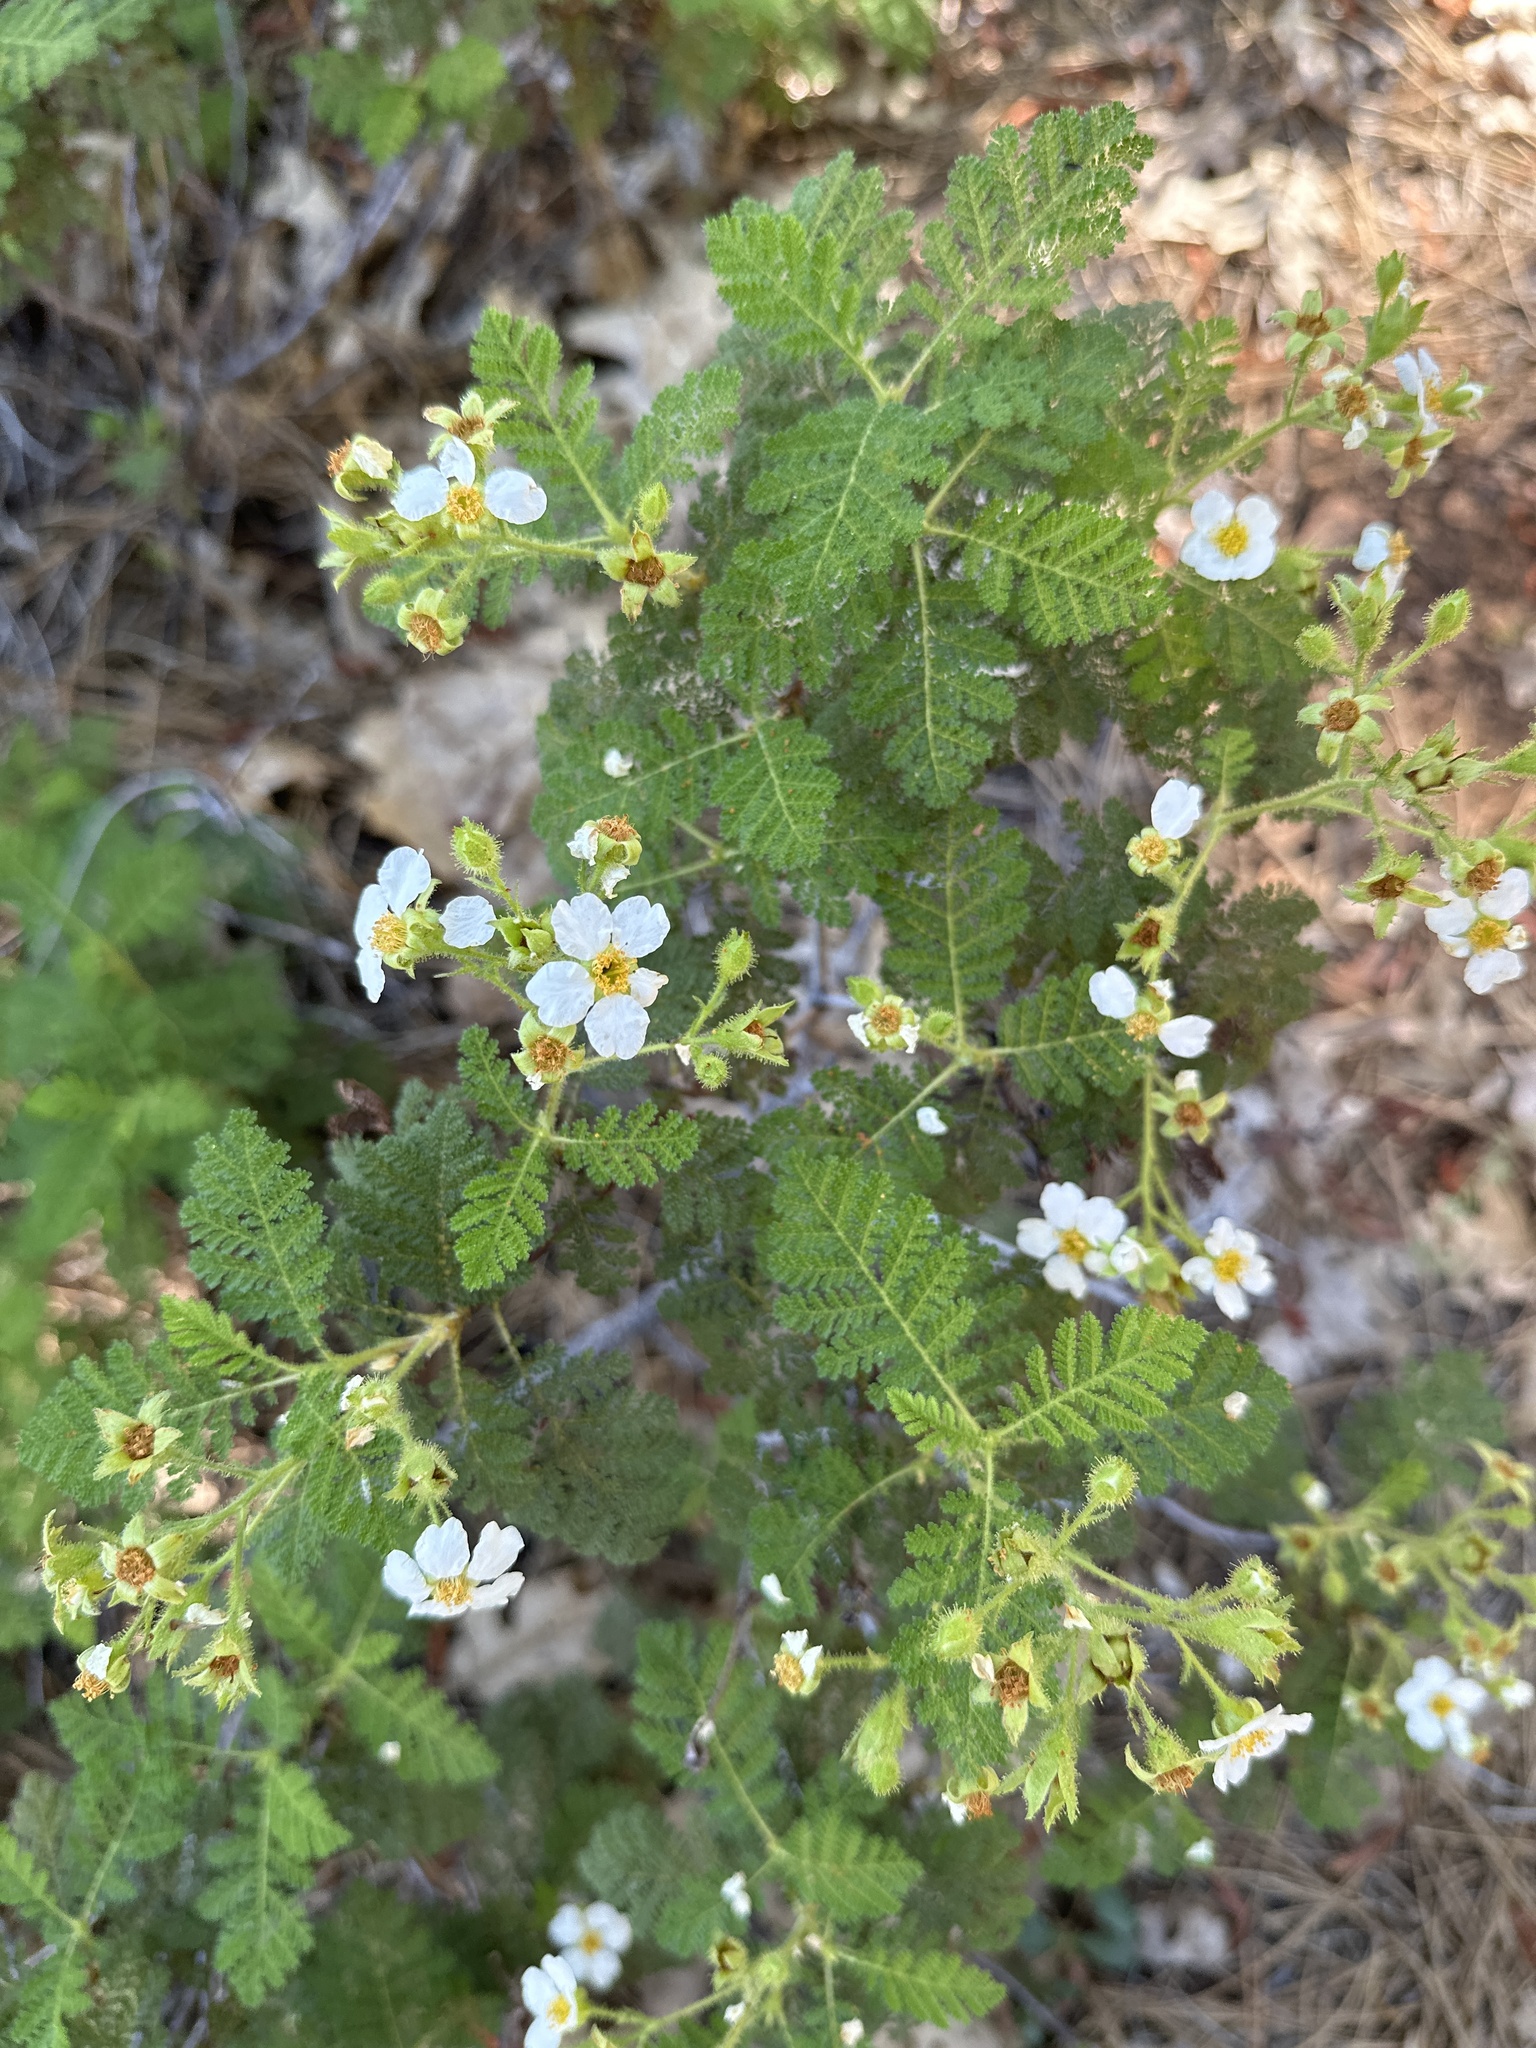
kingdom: Plantae
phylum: Tracheophyta
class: Magnoliopsida
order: Rosales
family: Rosaceae
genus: Chamaebatia
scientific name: Chamaebatia foliolosa
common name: Mountain misery
